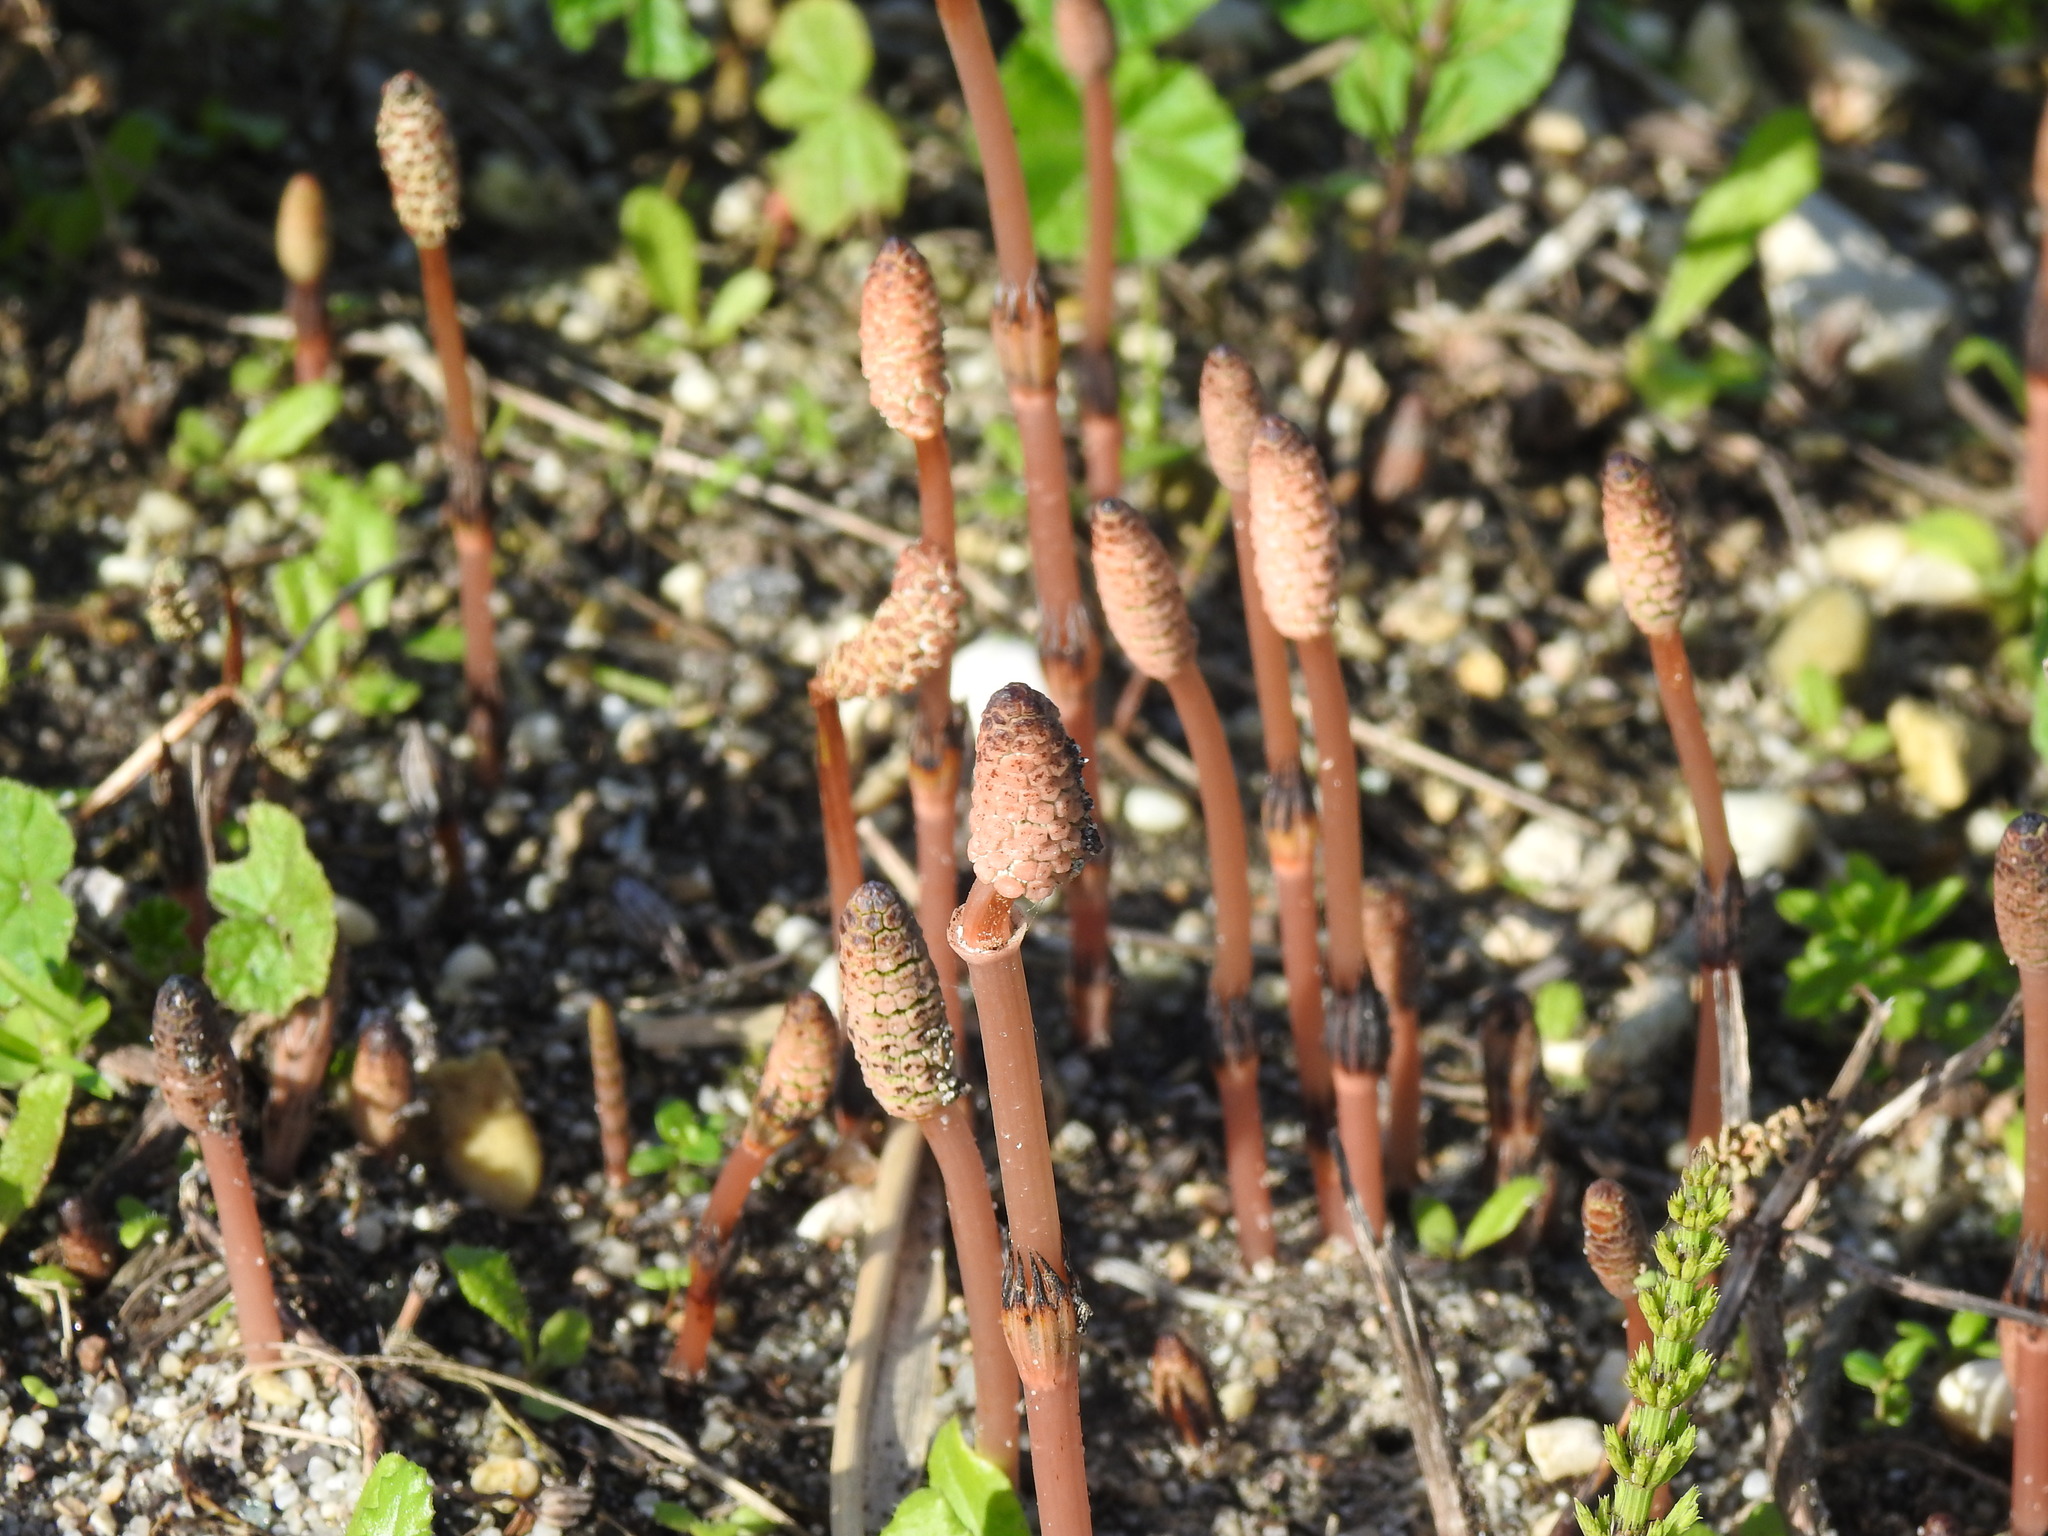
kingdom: Plantae
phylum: Tracheophyta
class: Polypodiopsida
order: Equisetales
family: Equisetaceae
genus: Equisetum
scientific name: Equisetum arvense
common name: Field horsetail
